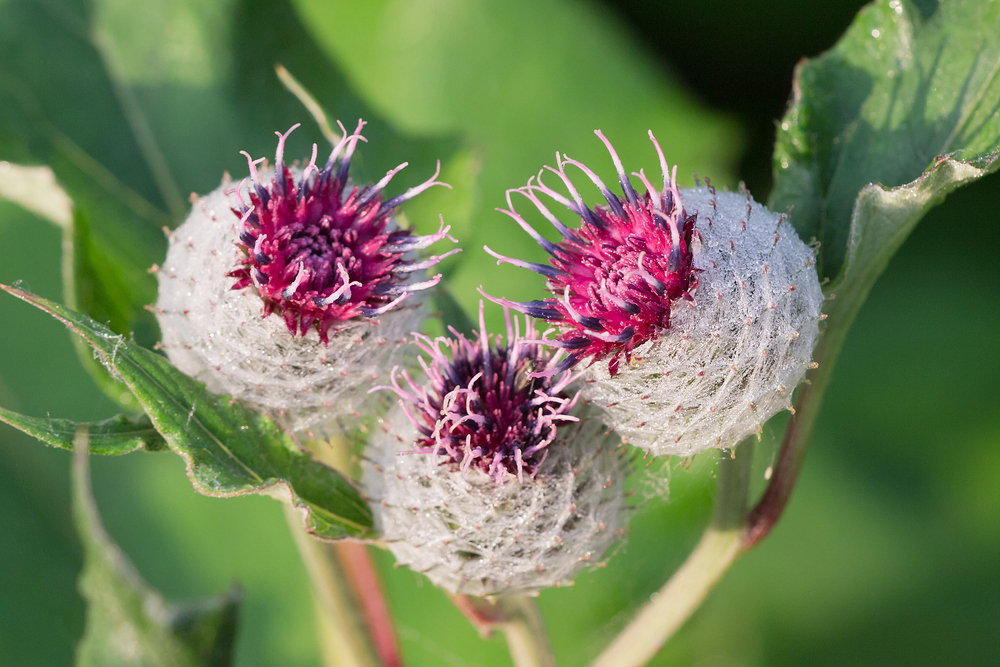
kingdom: Plantae
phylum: Tracheophyta
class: Magnoliopsida
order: Asterales
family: Asteraceae
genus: Arctium
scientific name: Arctium tomentosum
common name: Woolly burdock
